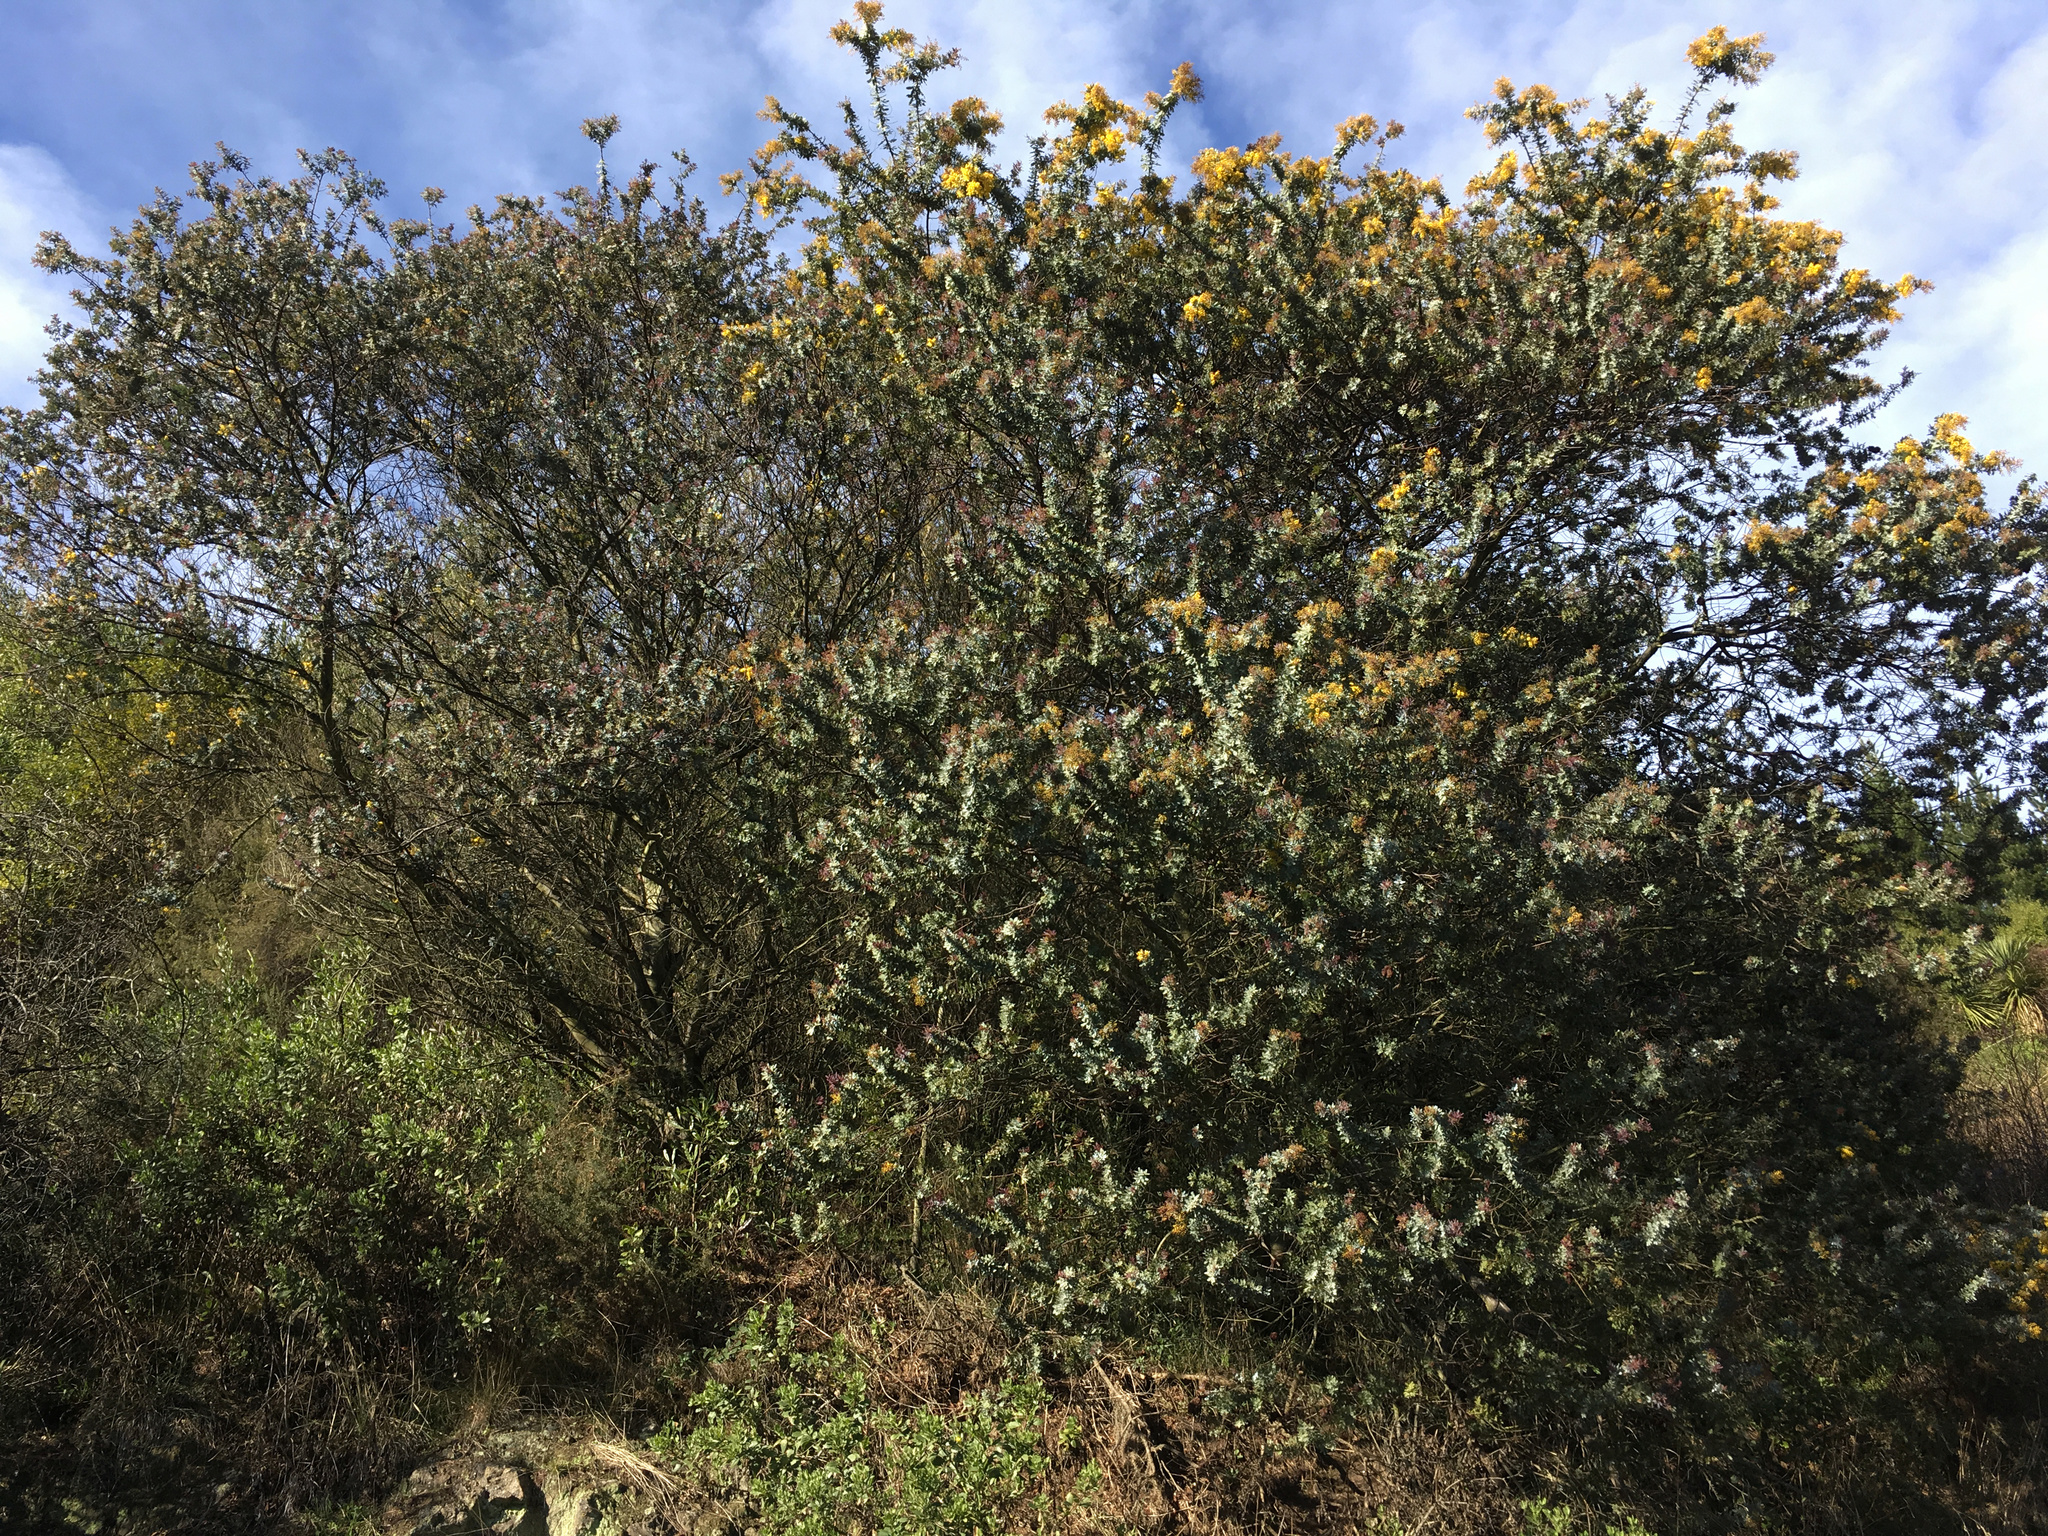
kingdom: Plantae
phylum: Tracheophyta
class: Magnoliopsida
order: Fabales
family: Fabaceae
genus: Acacia
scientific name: Acacia baileyana
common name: Cootamundra wattle
